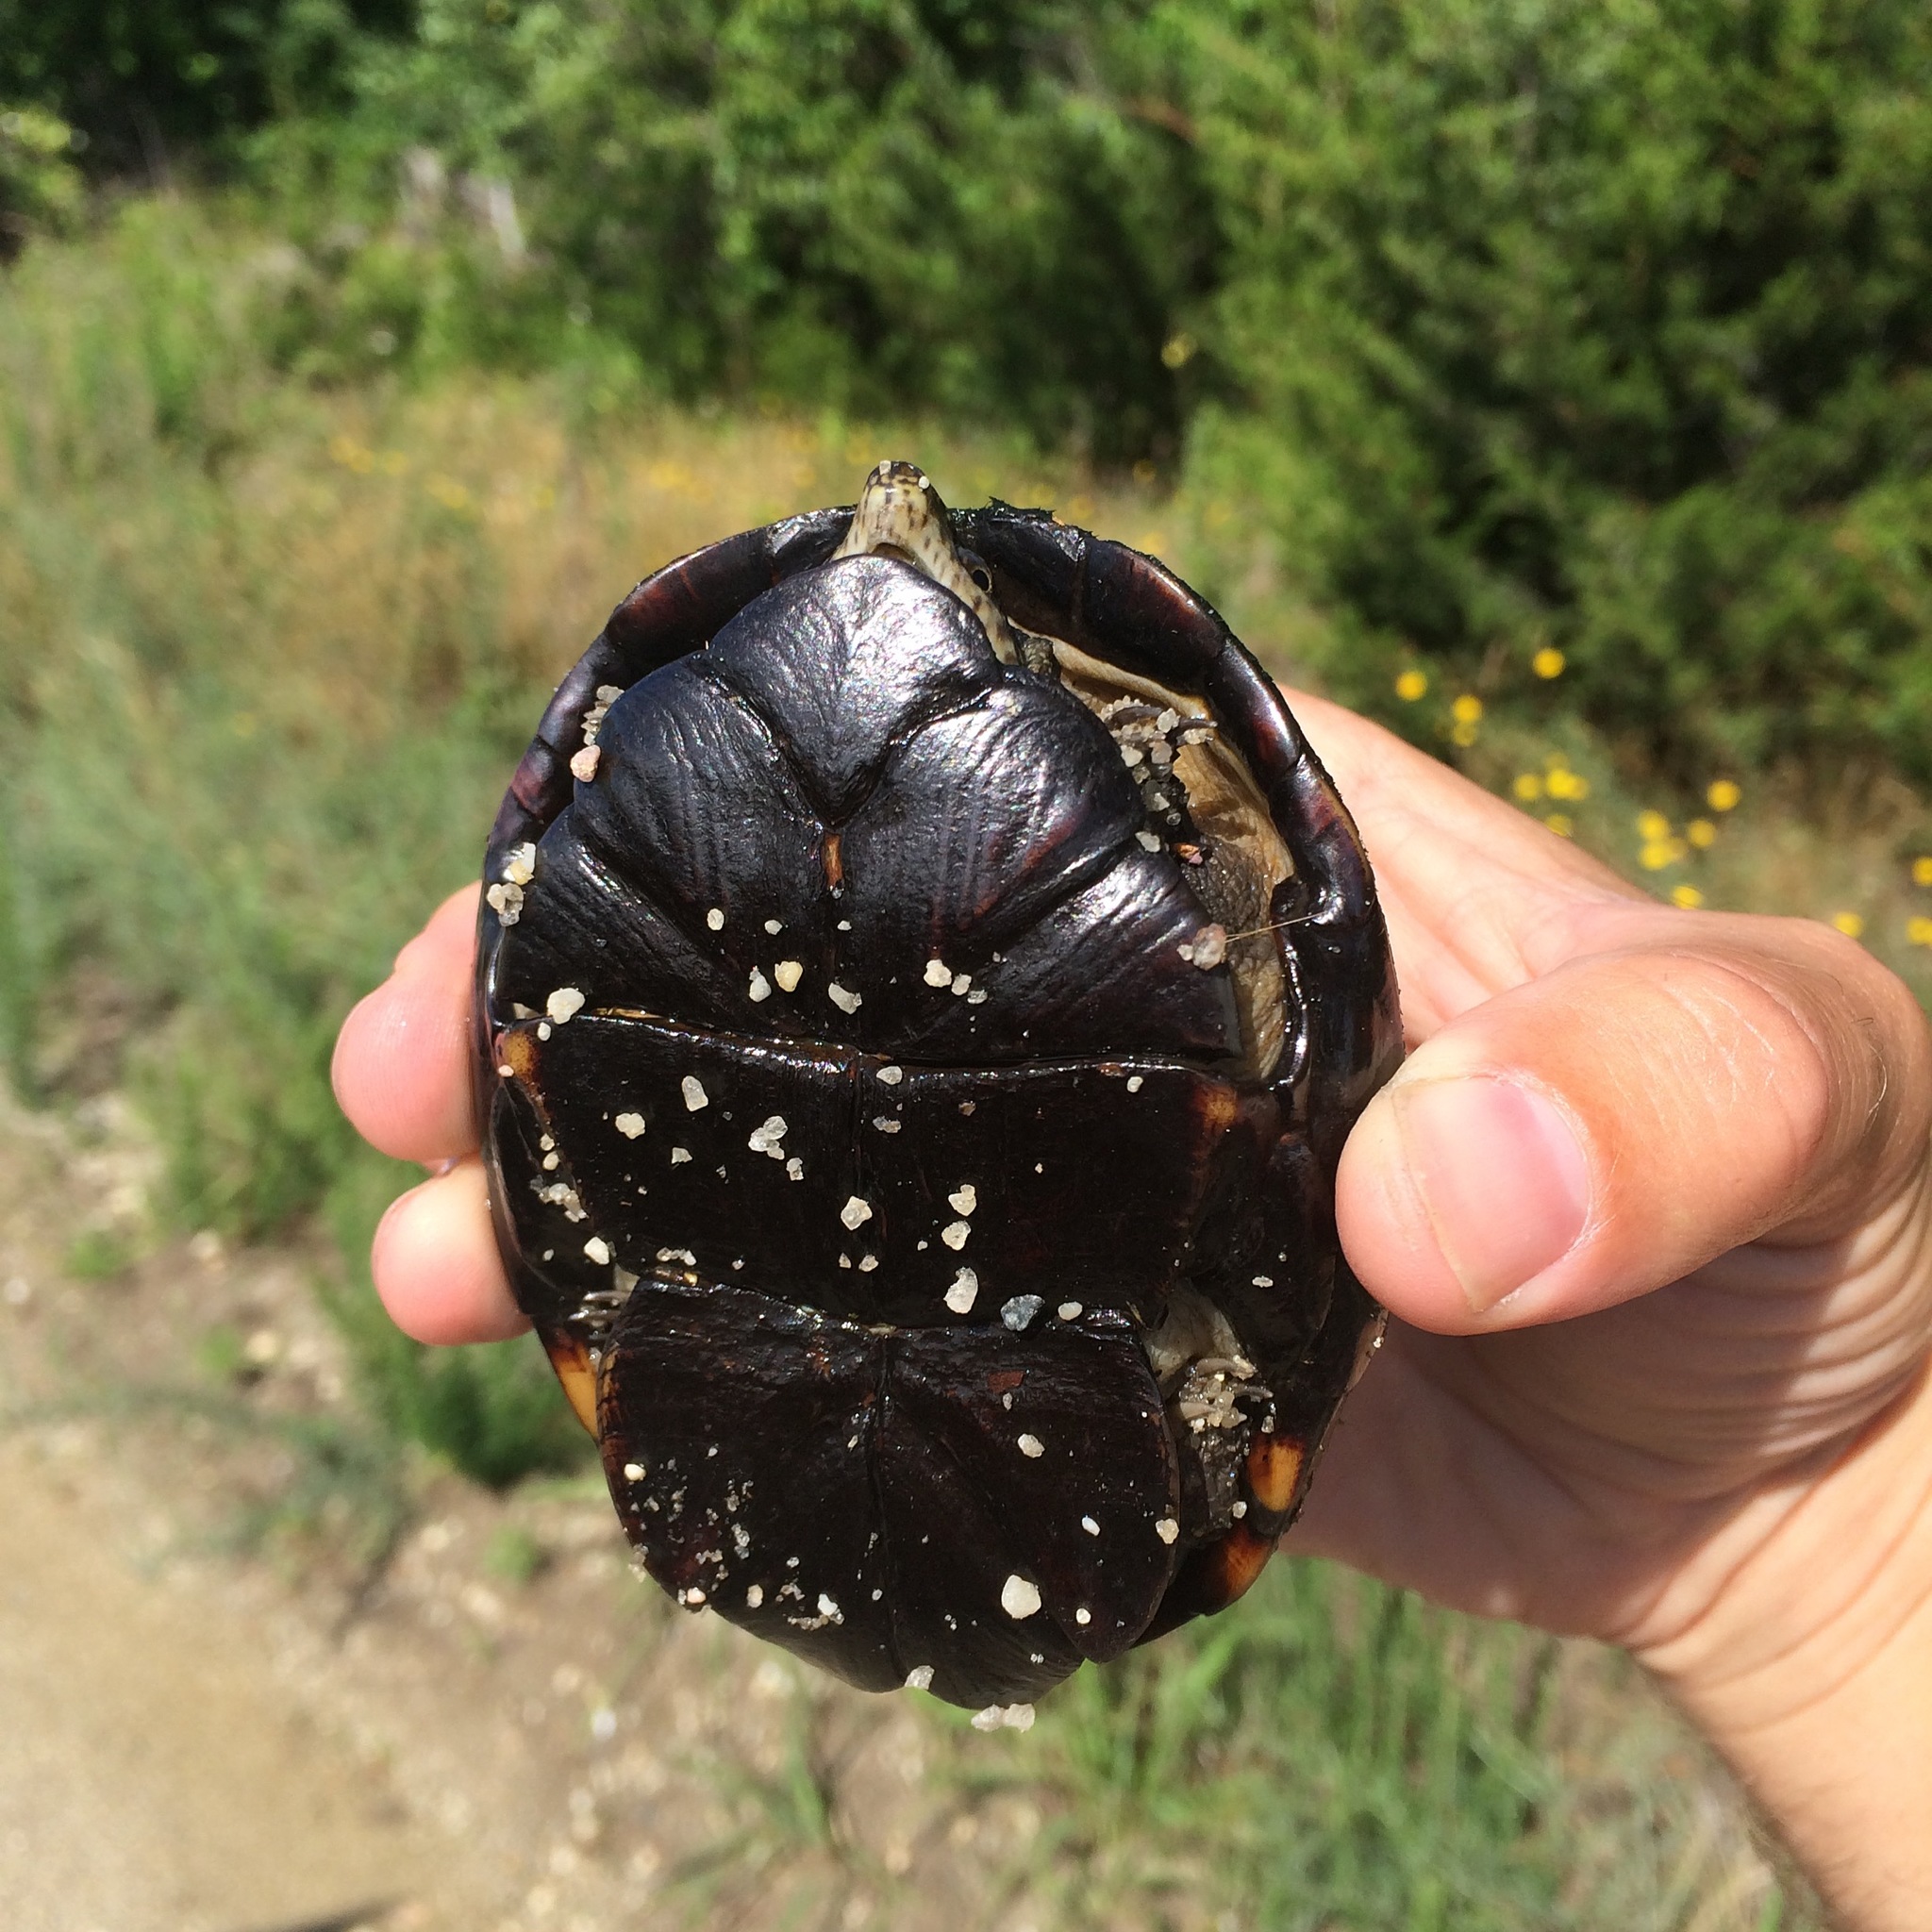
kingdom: Animalia
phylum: Chordata
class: Testudines
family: Kinosternidae
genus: Kinosternon
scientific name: Kinosternon subrubrum
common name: Eastern mud turtle
